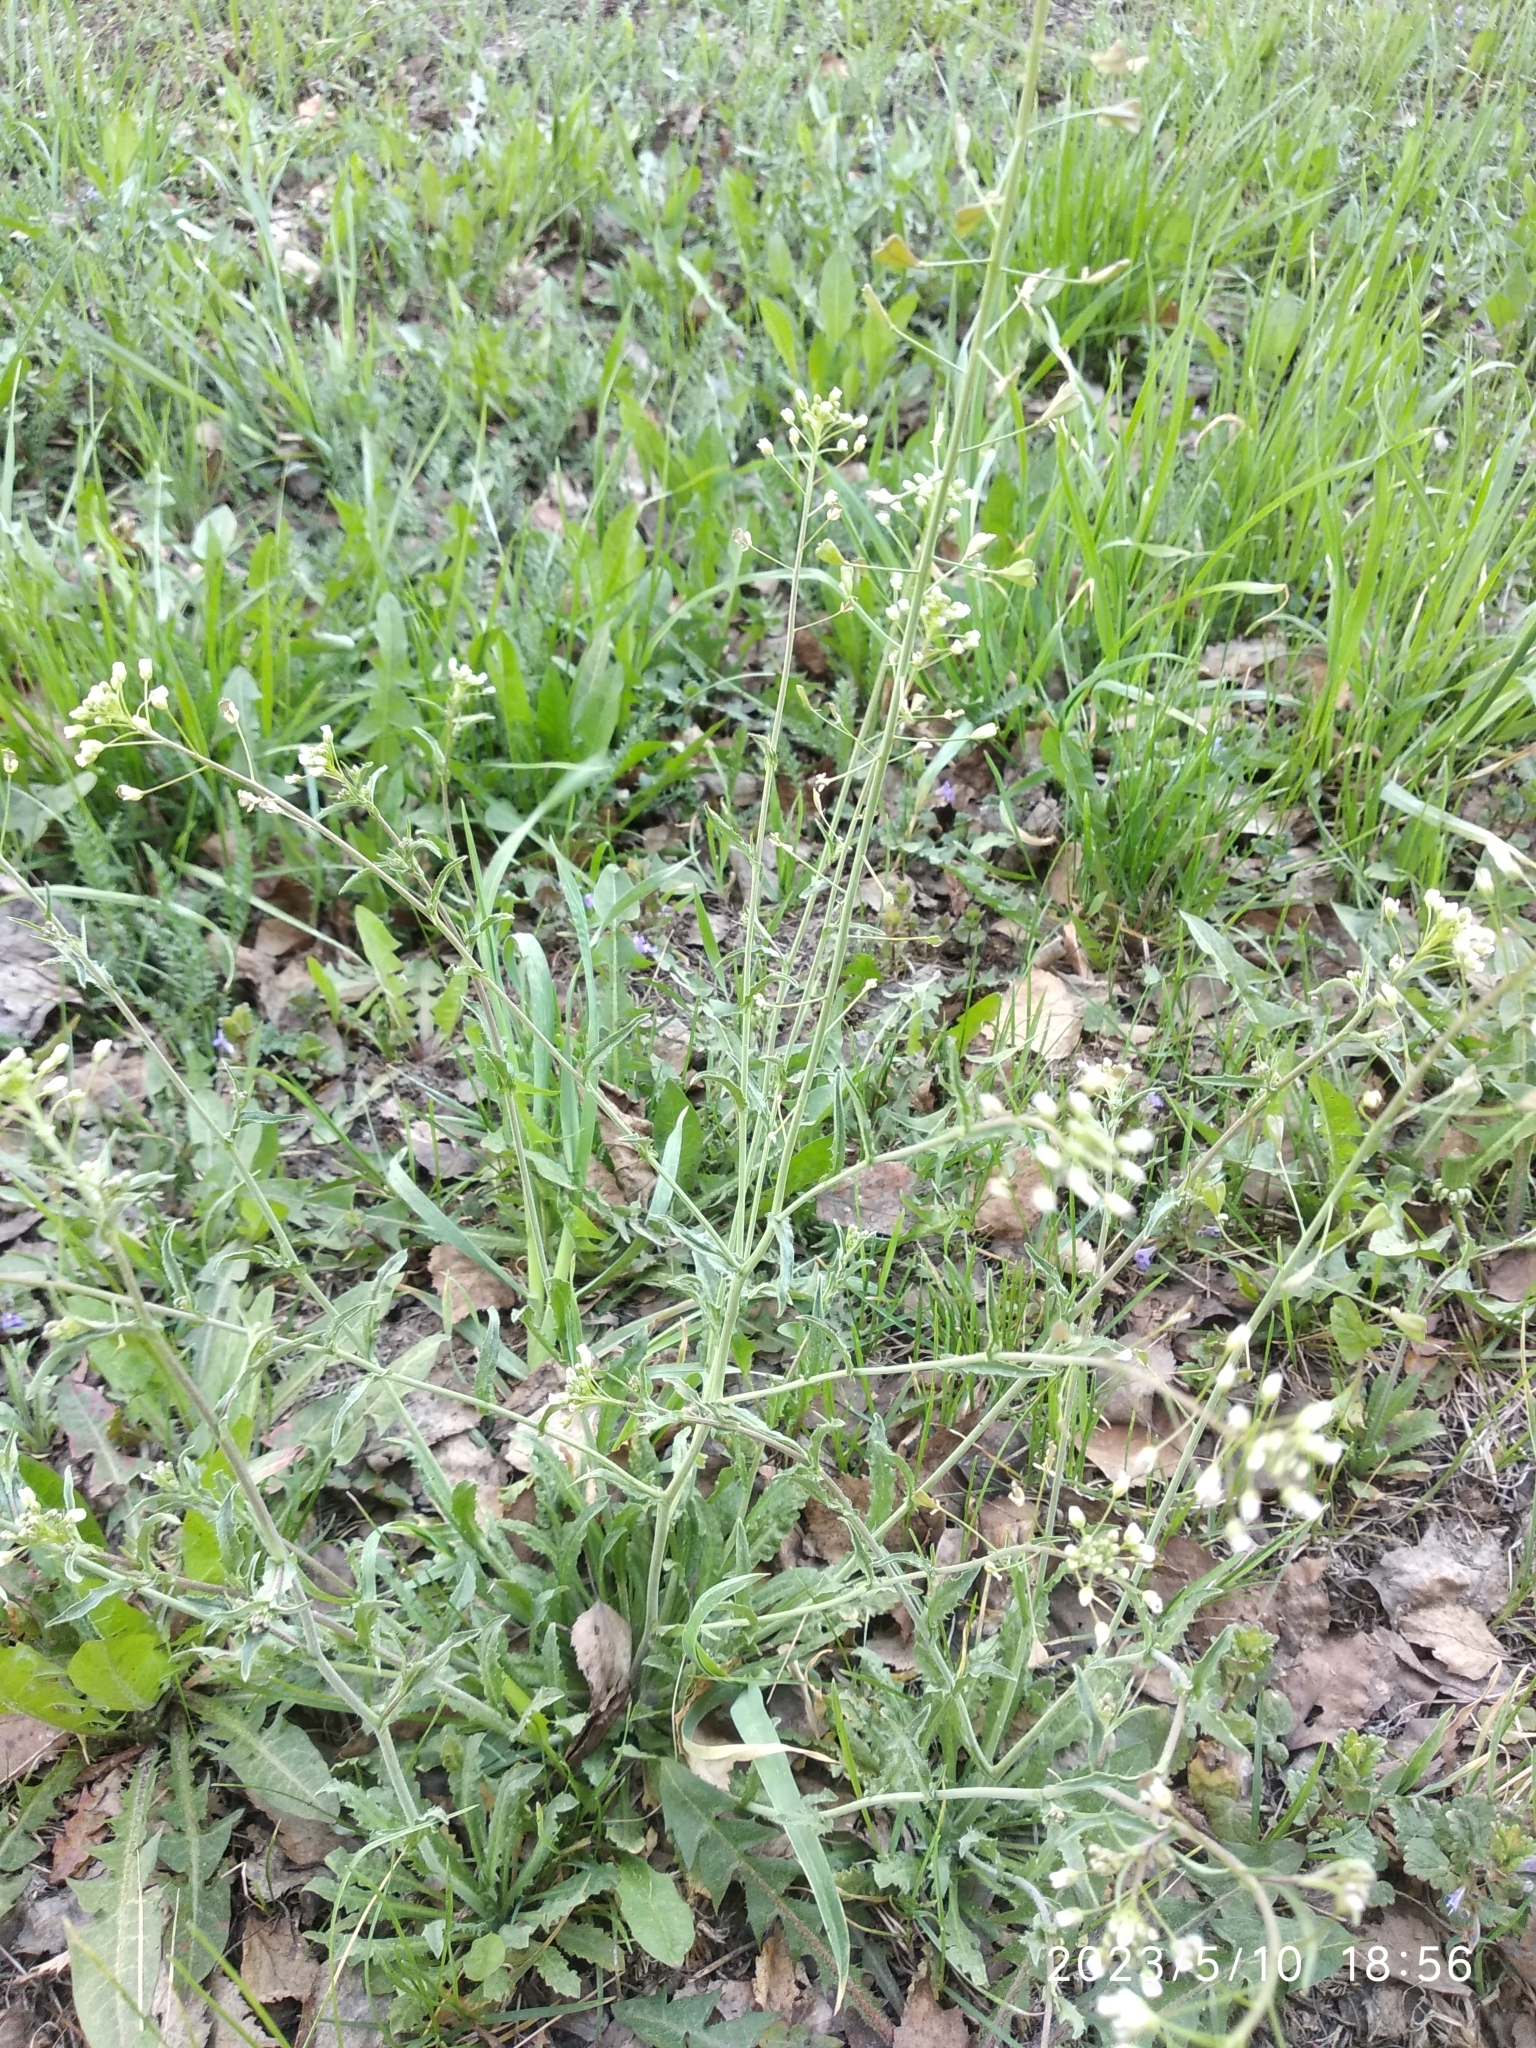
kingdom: Plantae
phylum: Tracheophyta
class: Magnoliopsida
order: Brassicales
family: Brassicaceae
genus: Capsella
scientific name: Capsella bursa-pastoris
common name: Shepherd's purse
